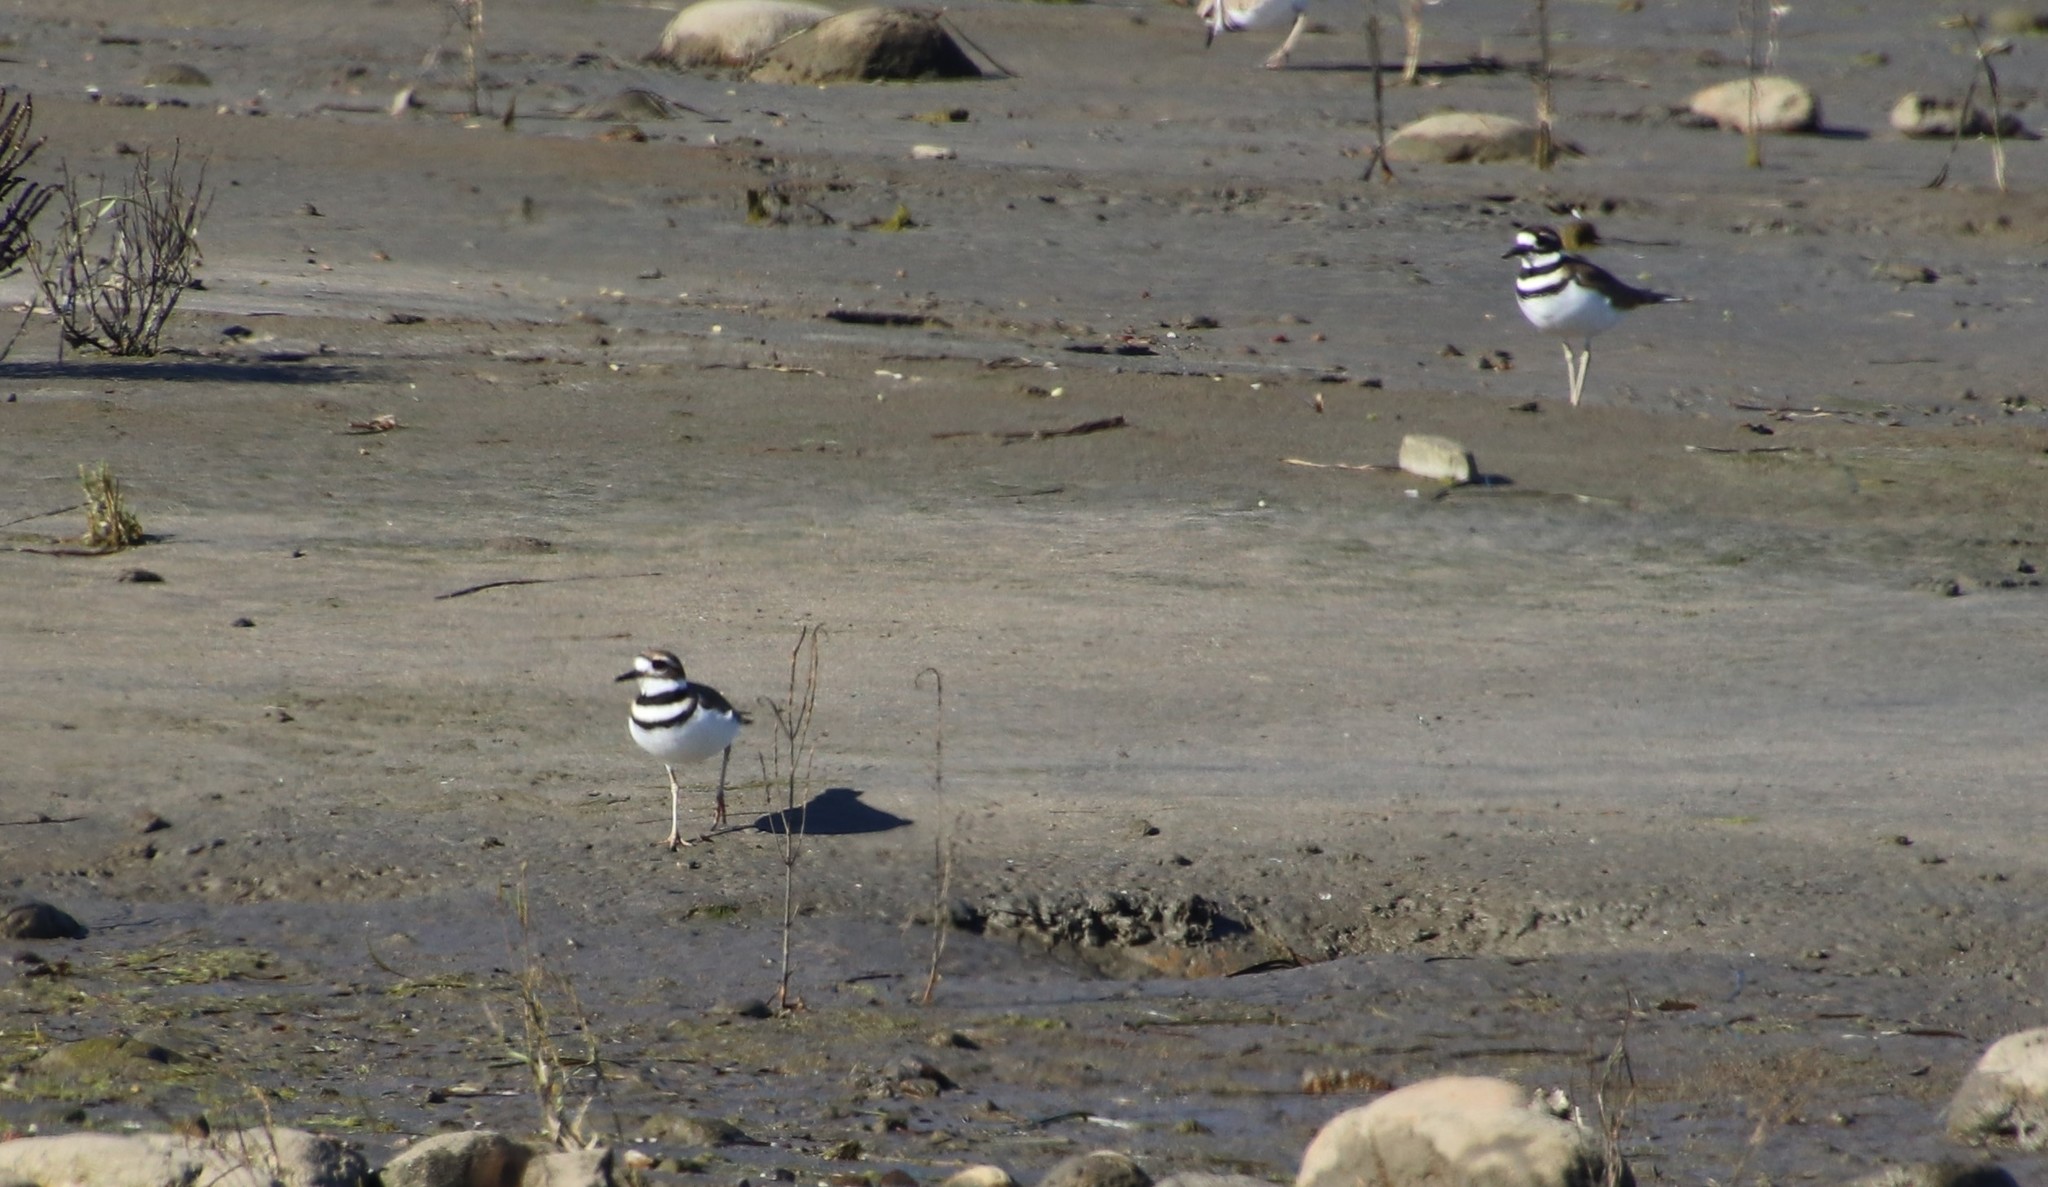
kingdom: Animalia
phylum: Chordata
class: Aves
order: Charadriiformes
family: Charadriidae
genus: Charadrius
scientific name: Charadrius vociferus
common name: Killdeer
